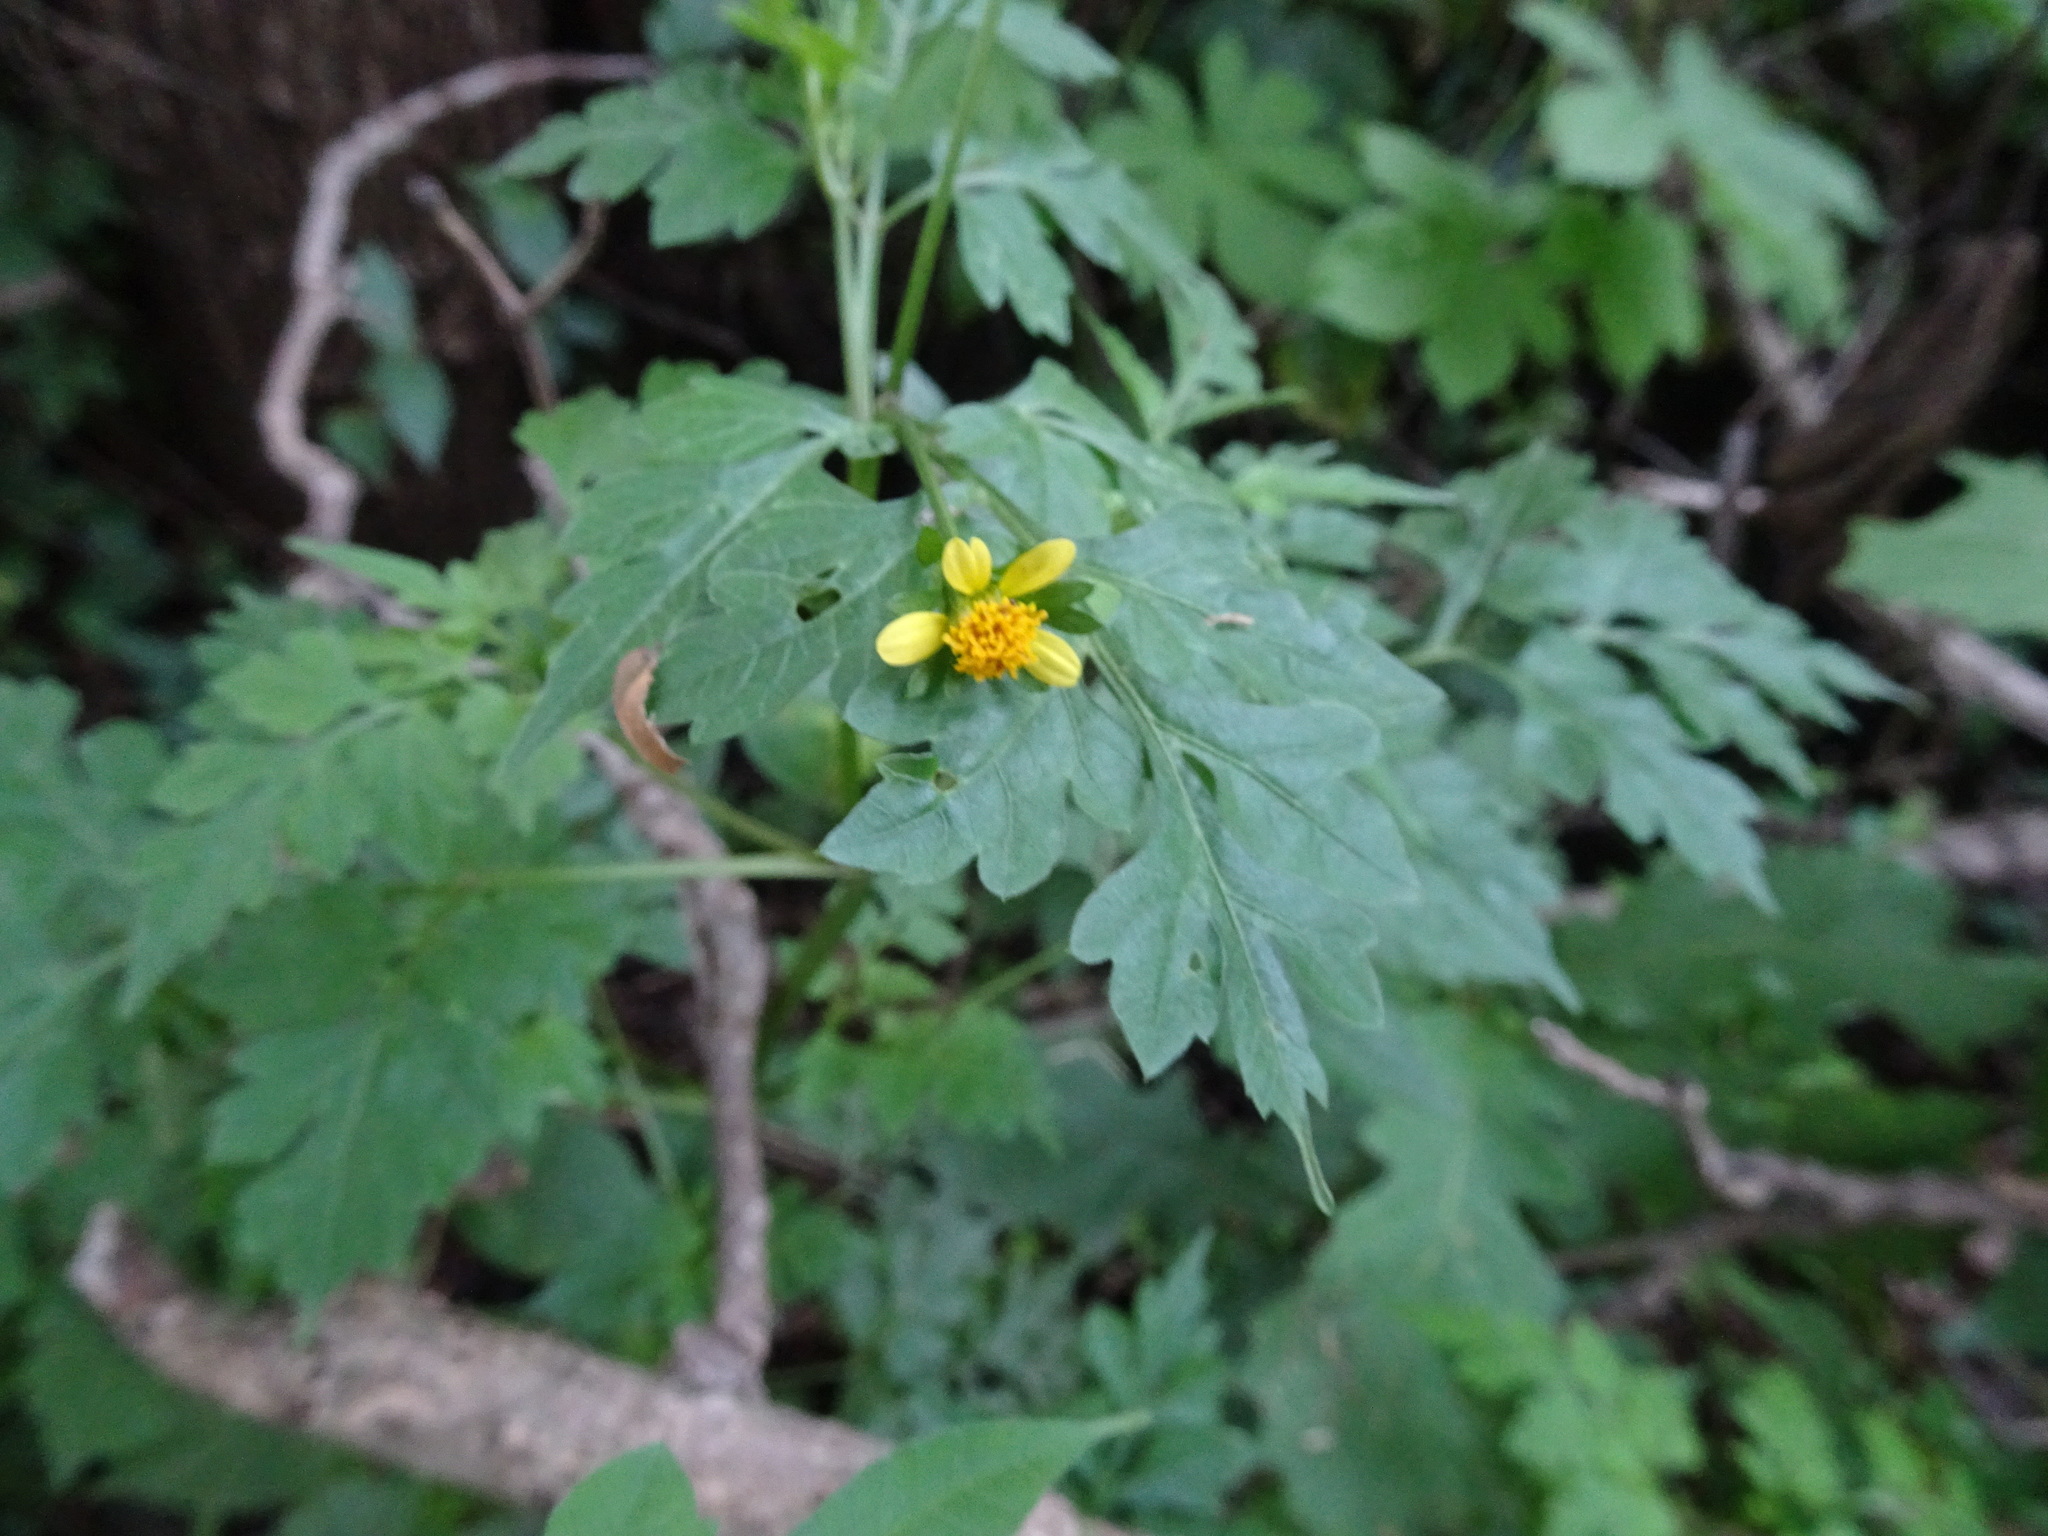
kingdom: Plantae
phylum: Tracheophyta
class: Magnoliopsida
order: Asterales
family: Asteraceae
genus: Bidens
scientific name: Bidens bipinnata
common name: Spanish-needles
